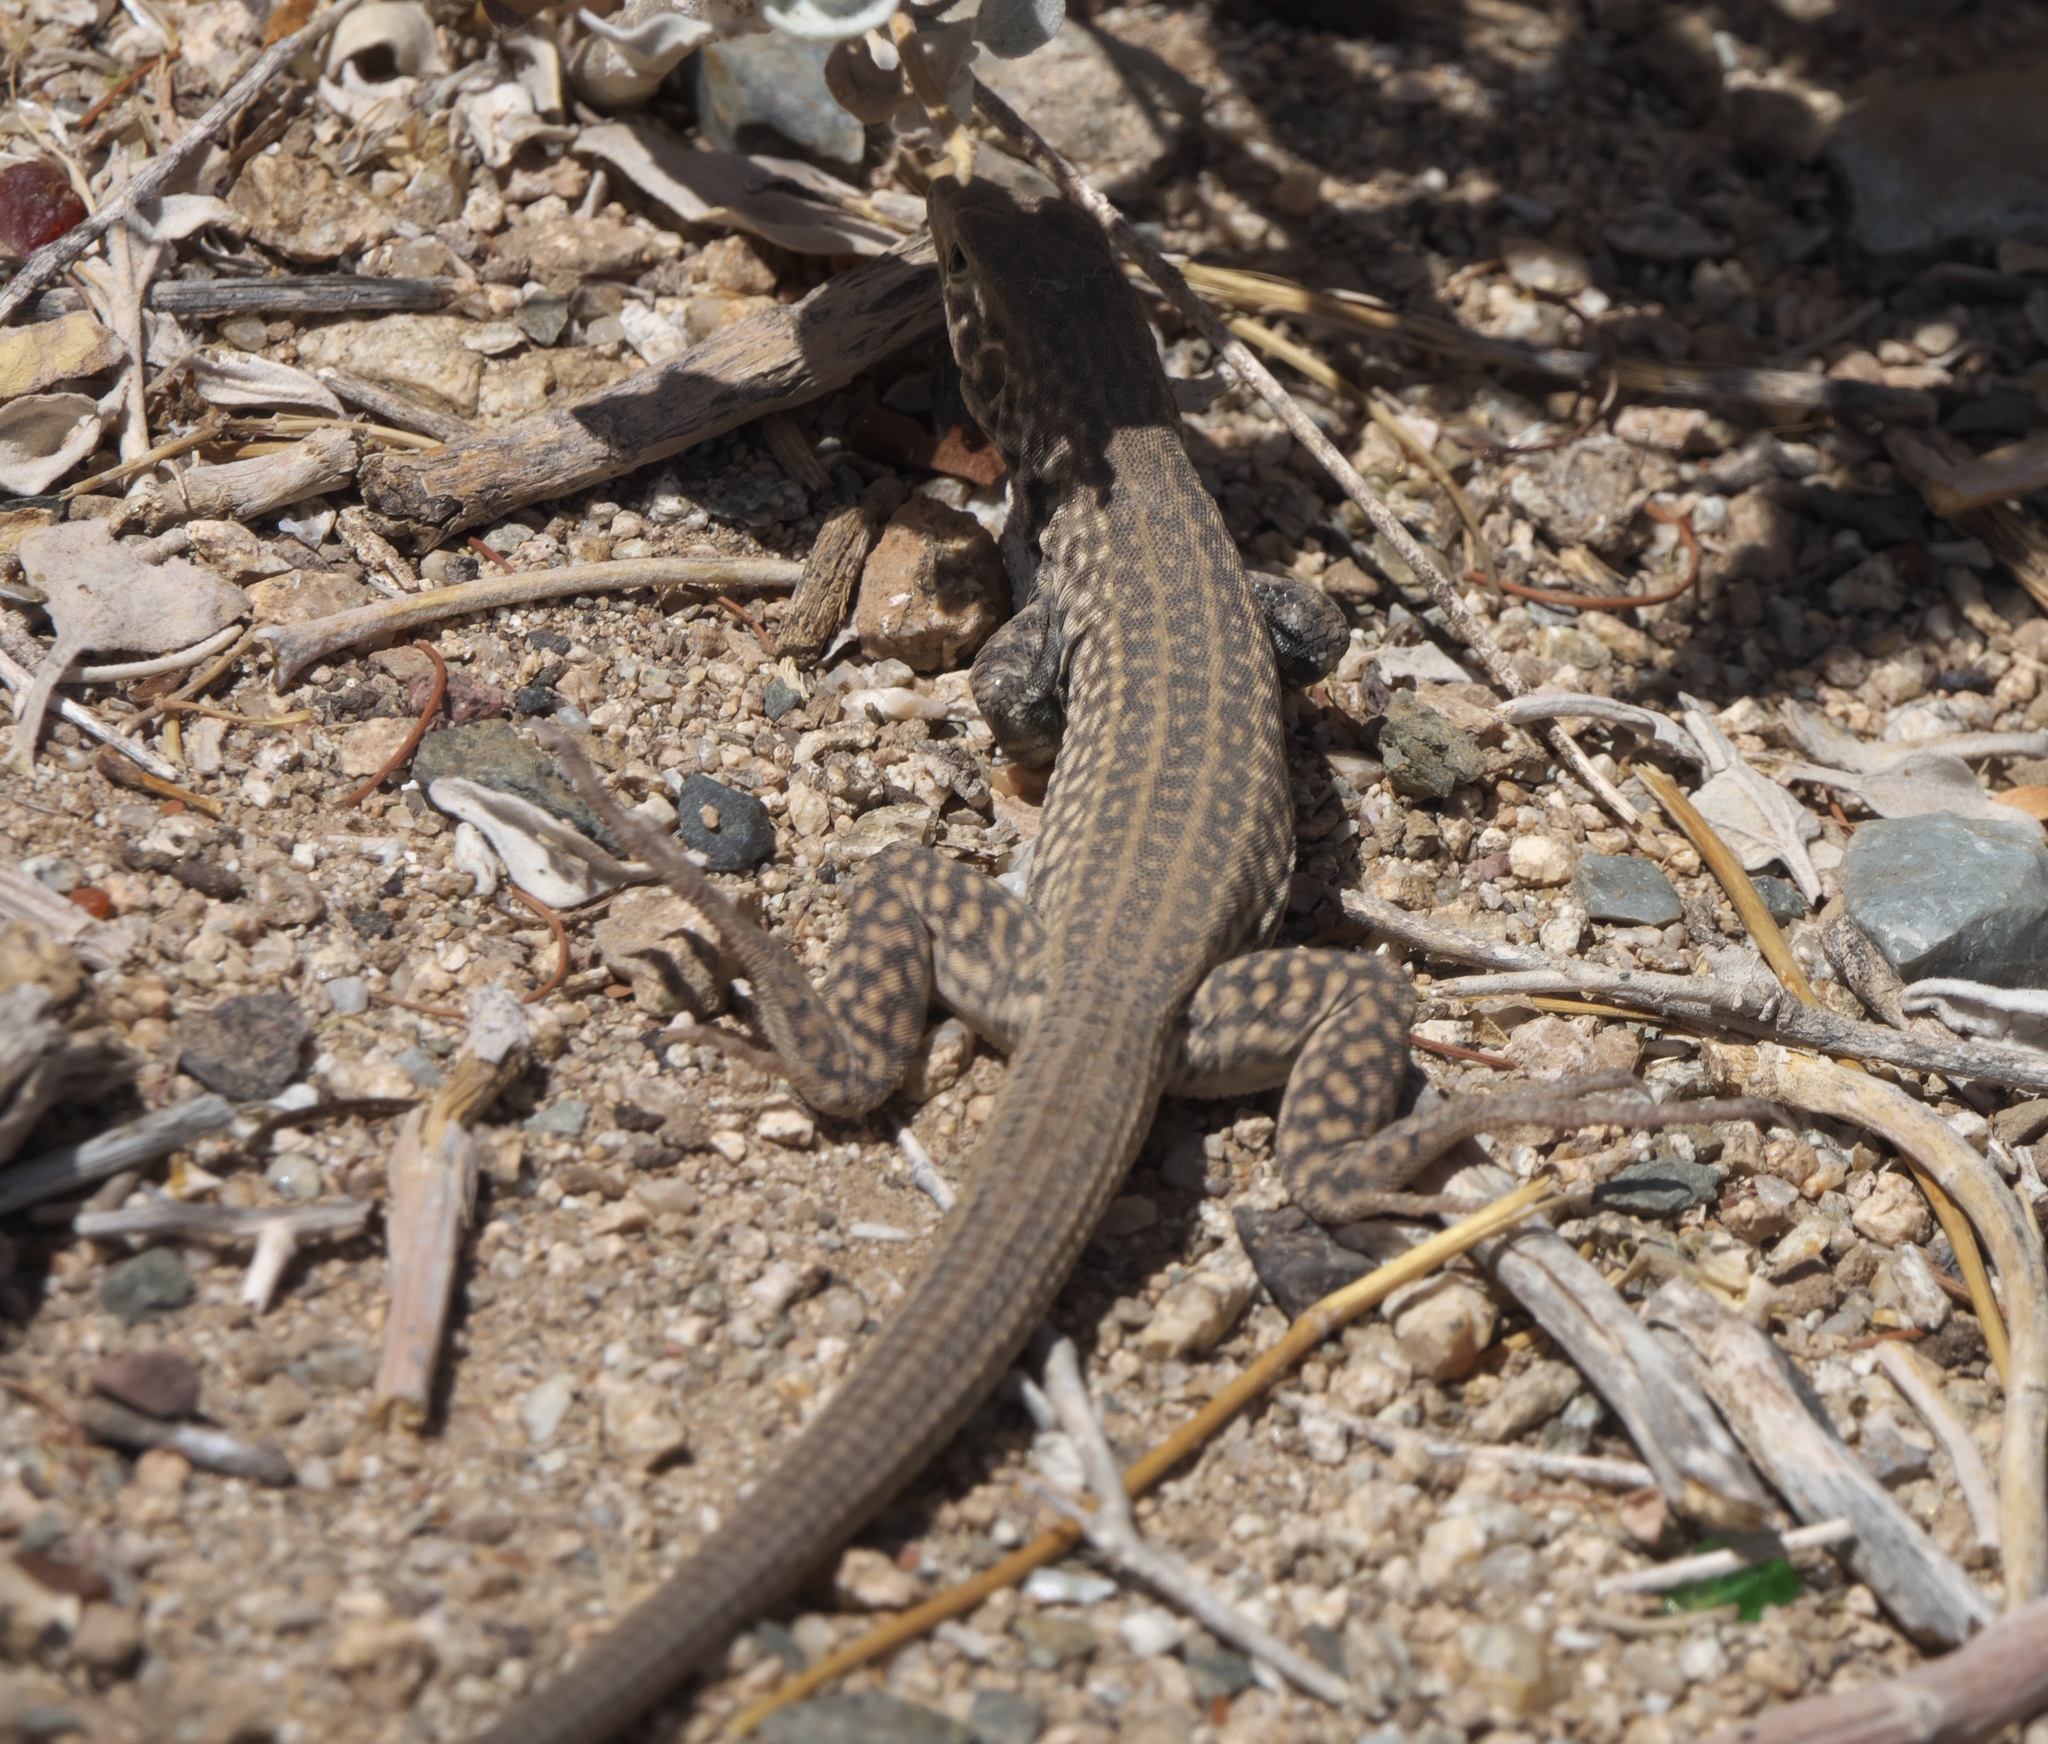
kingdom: Animalia
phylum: Chordata
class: Squamata
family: Teiidae
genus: Aspidoscelis
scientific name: Aspidoscelis tigris
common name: Tiger whiptail
